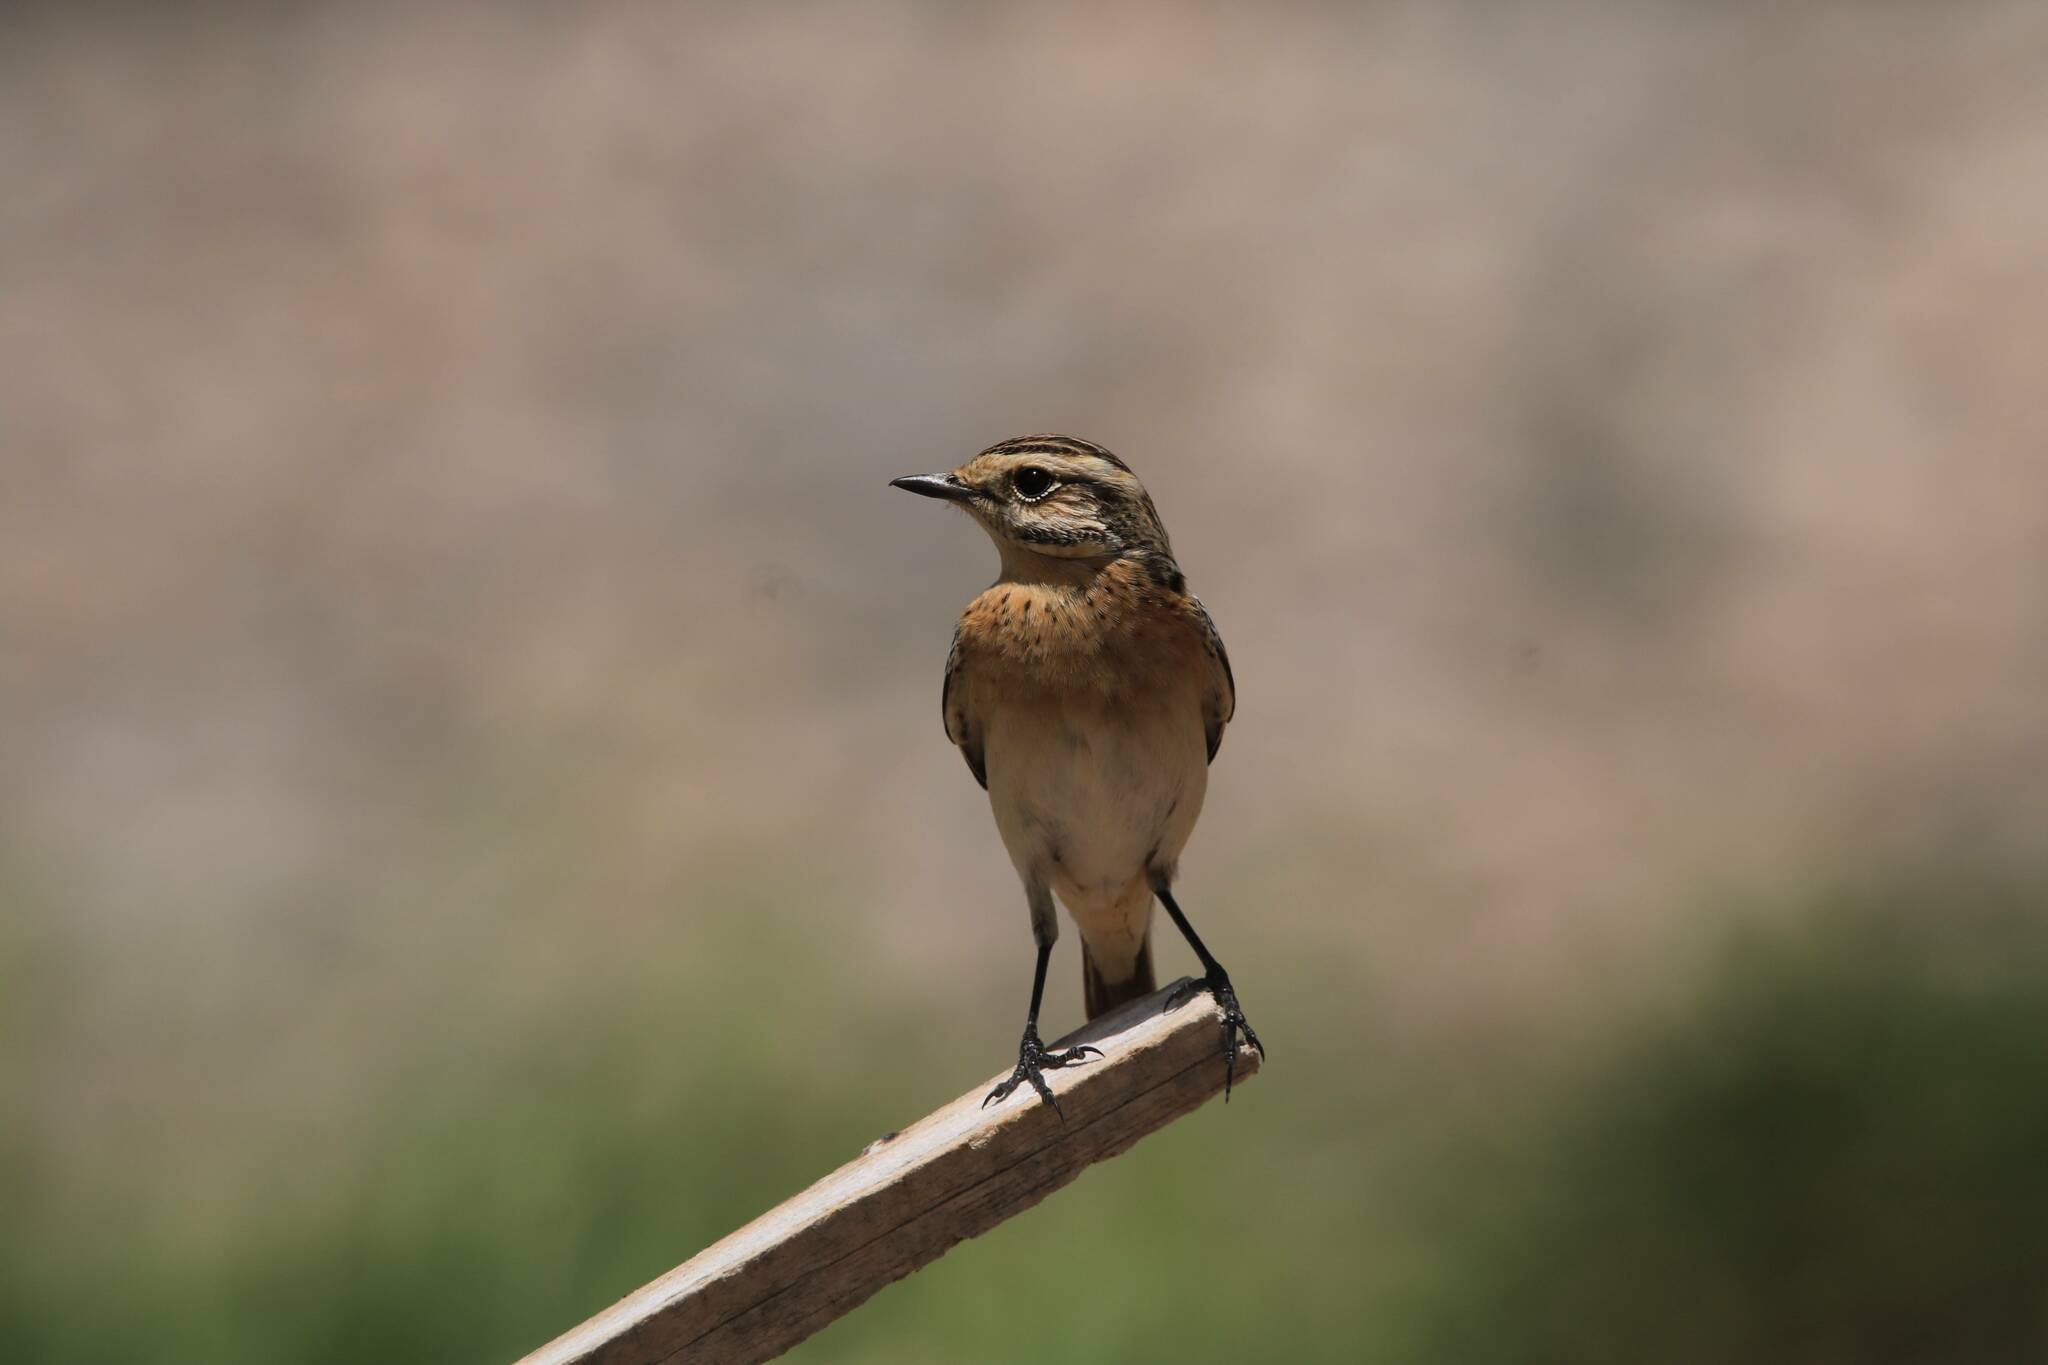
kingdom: Animalia
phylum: Chordata
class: Aves
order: Passeriformes
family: Muscicapidae
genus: Saxicola
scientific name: Saxicola rubetra
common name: Whinchat
